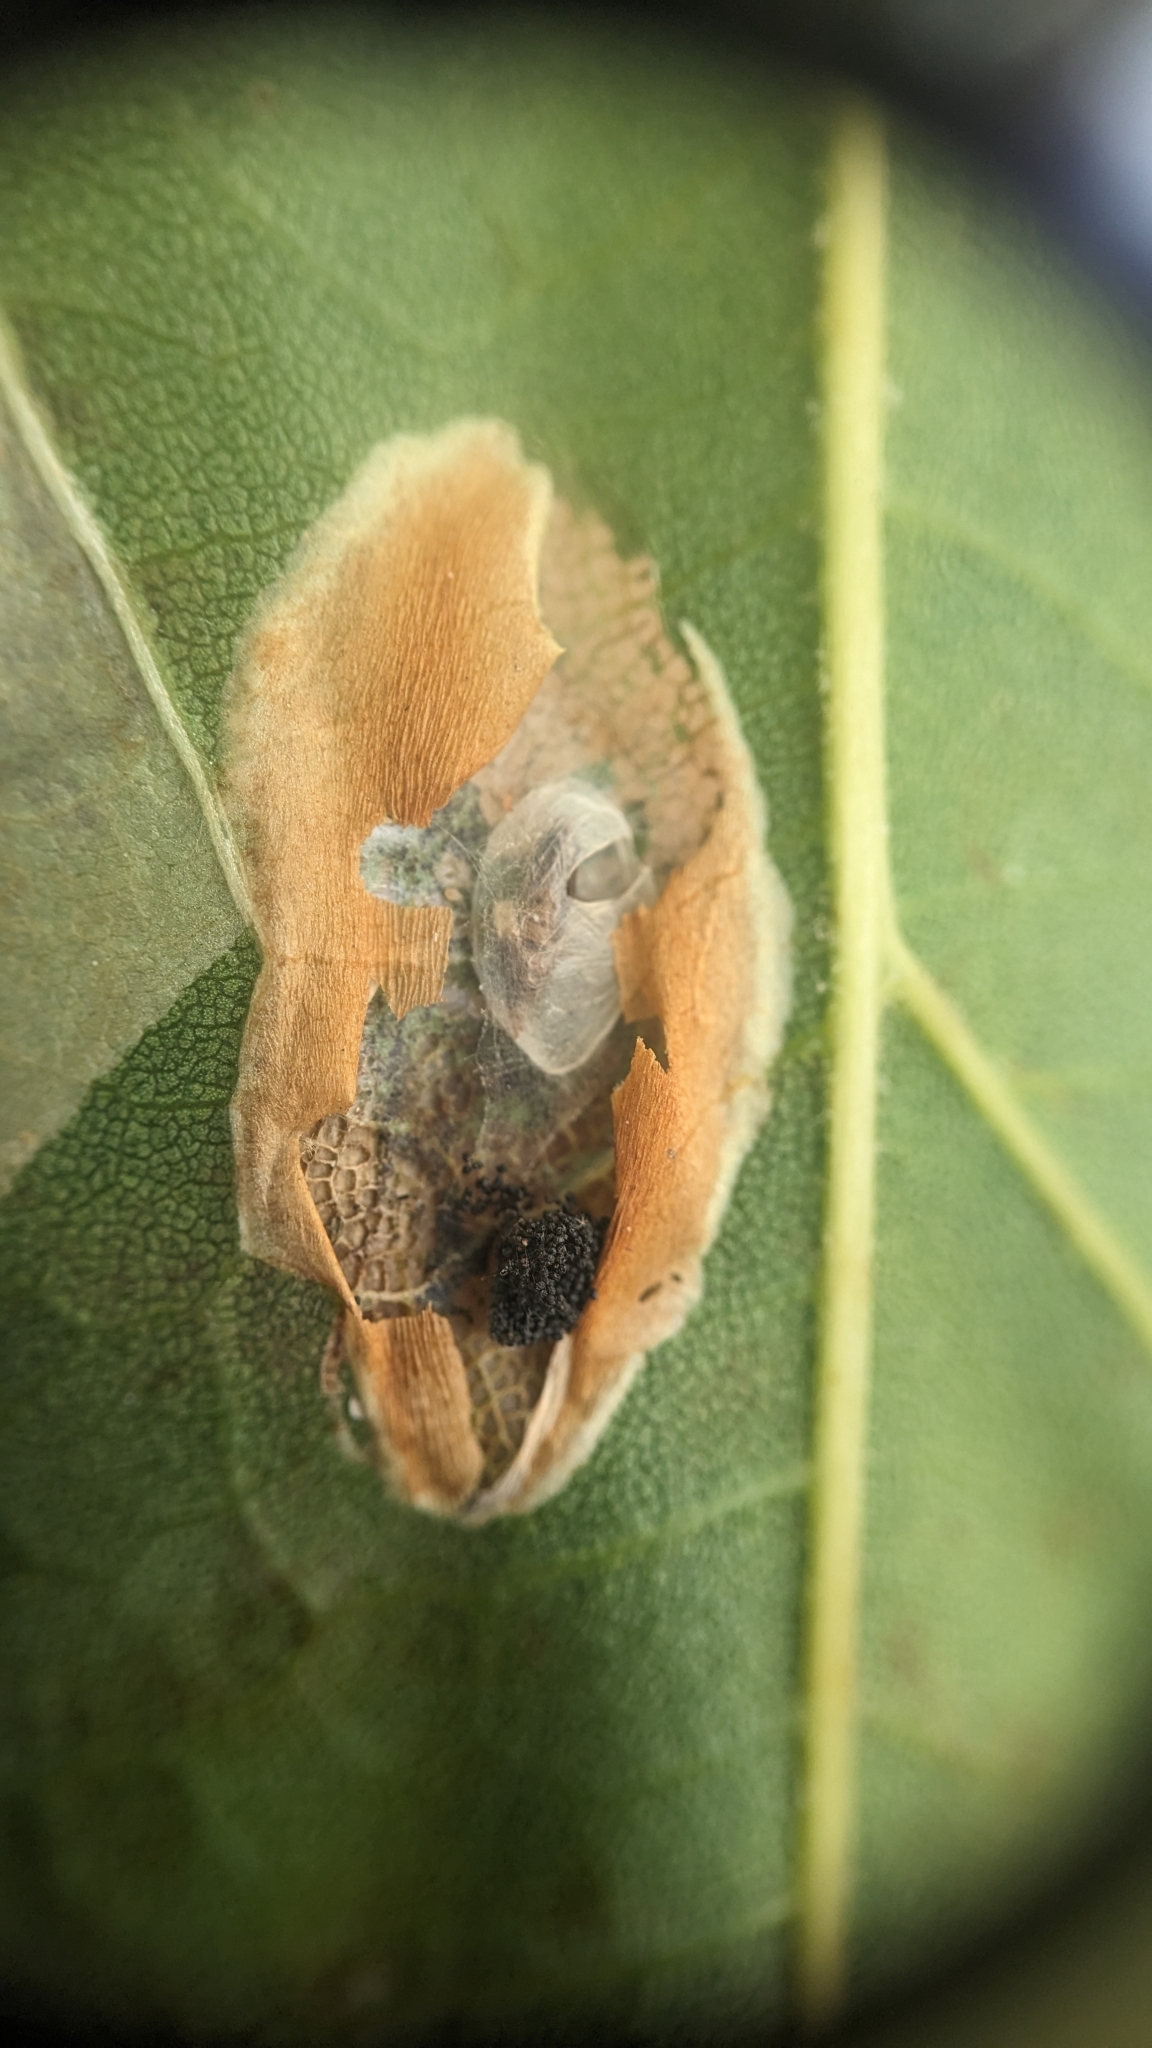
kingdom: Animalia
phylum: Arthropoda
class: Insecta
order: Lepidoptera
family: Gracillariidae
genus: Phyllonorycter
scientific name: Phyllonorycter platani
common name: London midget
